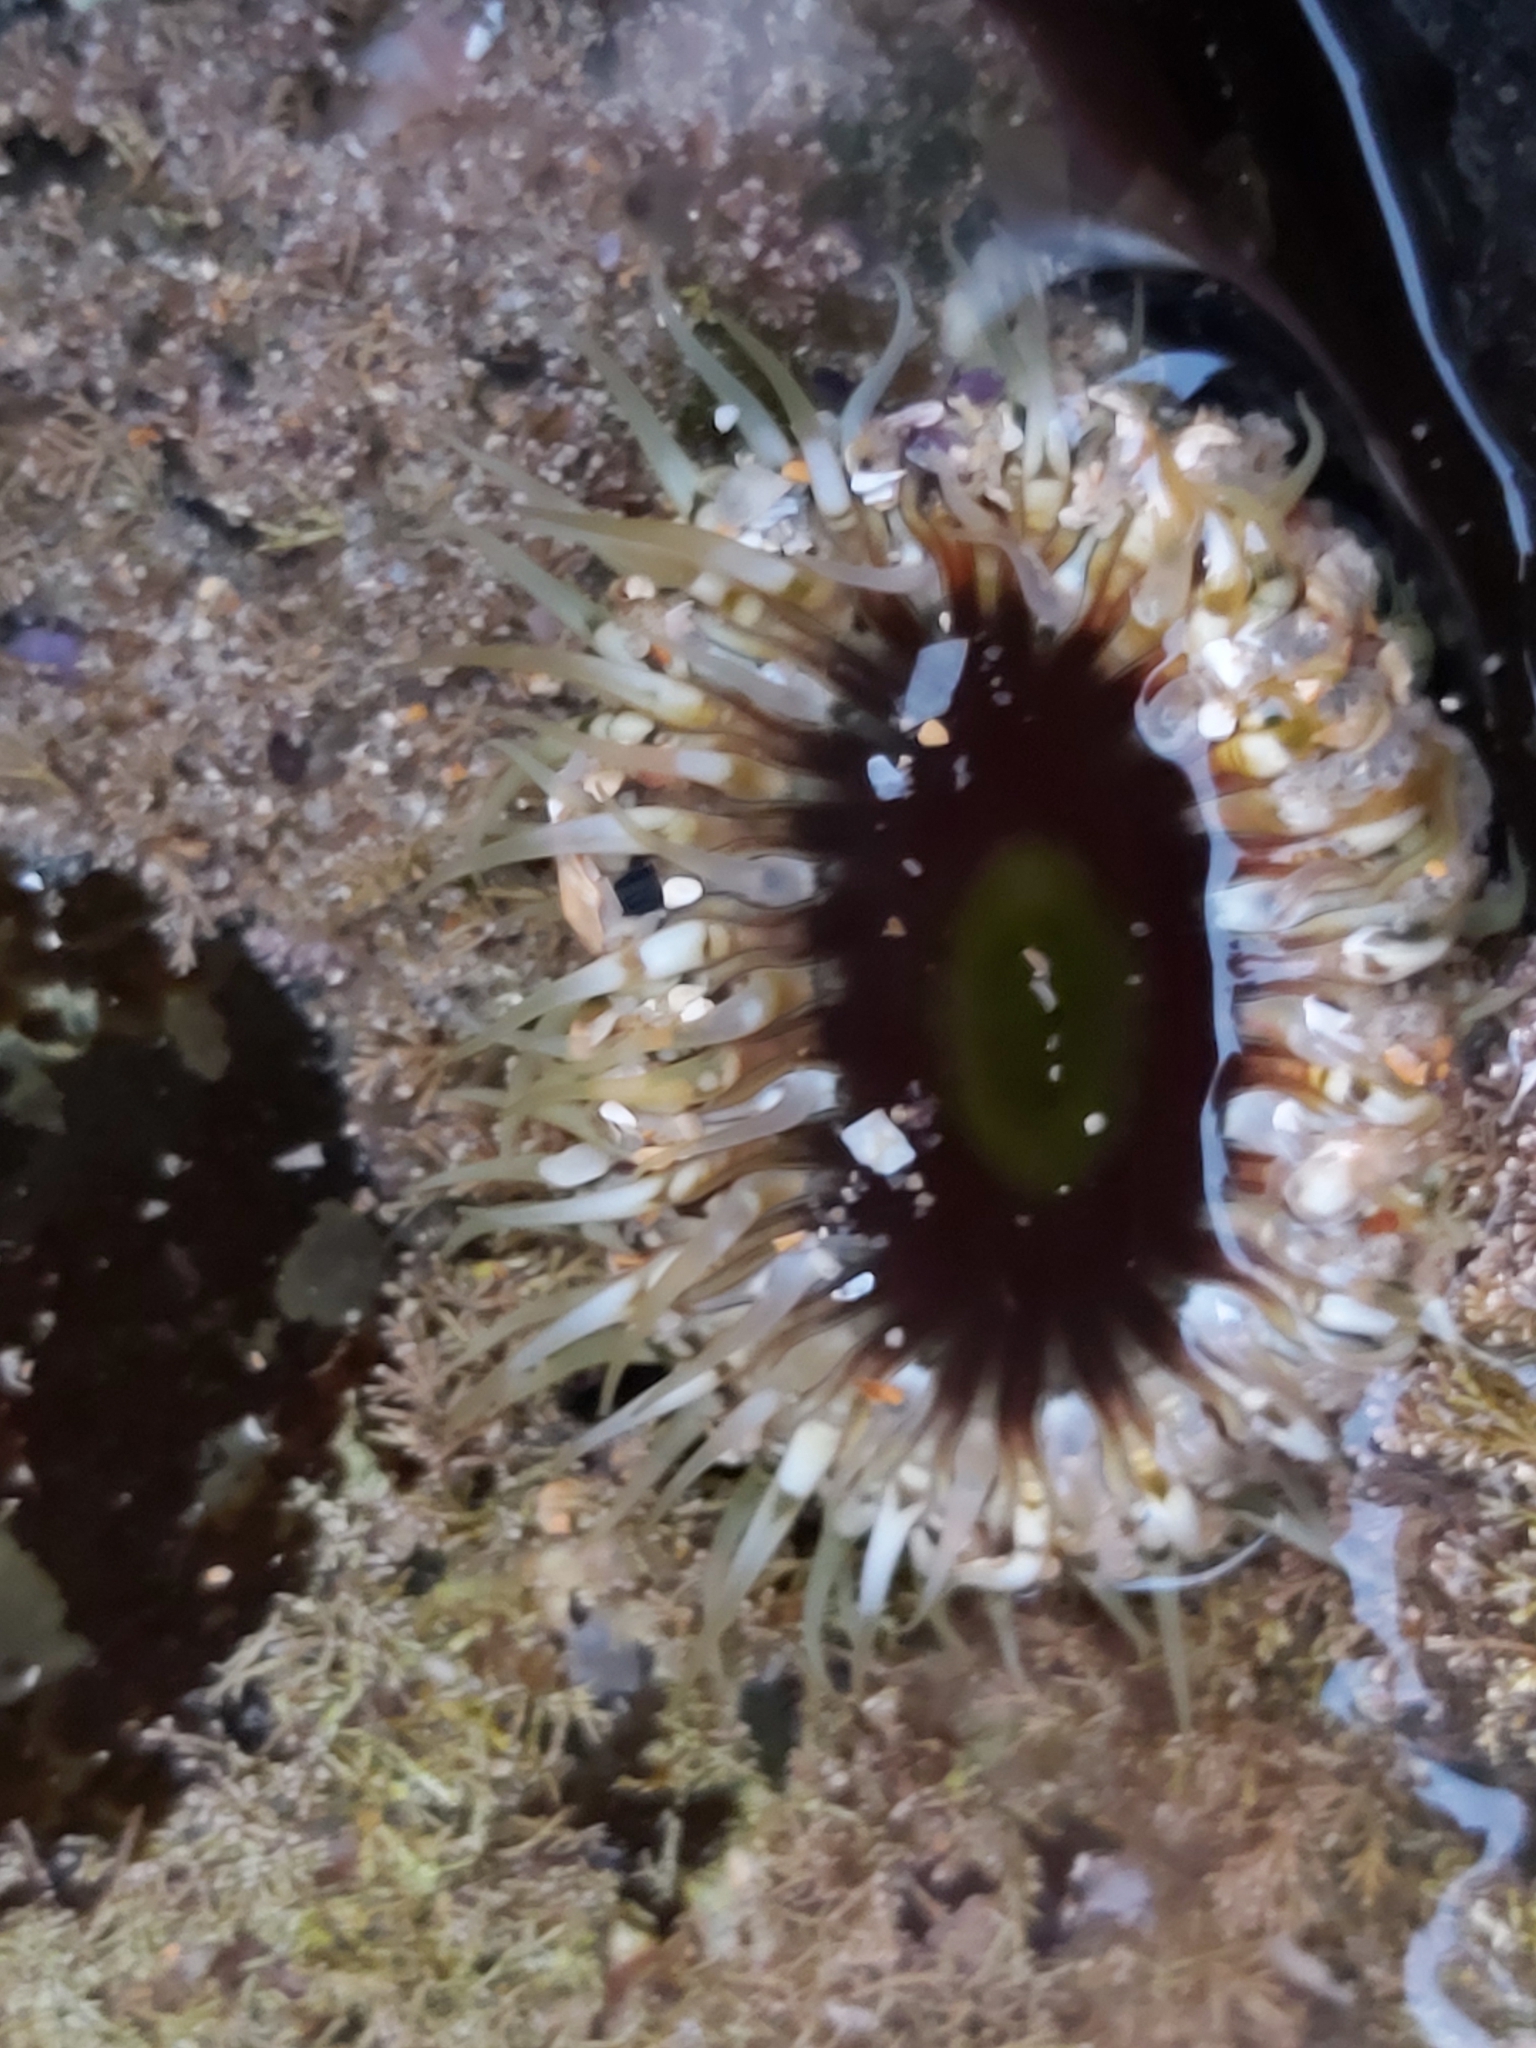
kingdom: Animalia
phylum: Cnidaria
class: Anthozoa
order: Actiniaria
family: Actiniidae
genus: Oulactis
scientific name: Oulactis muscosa
